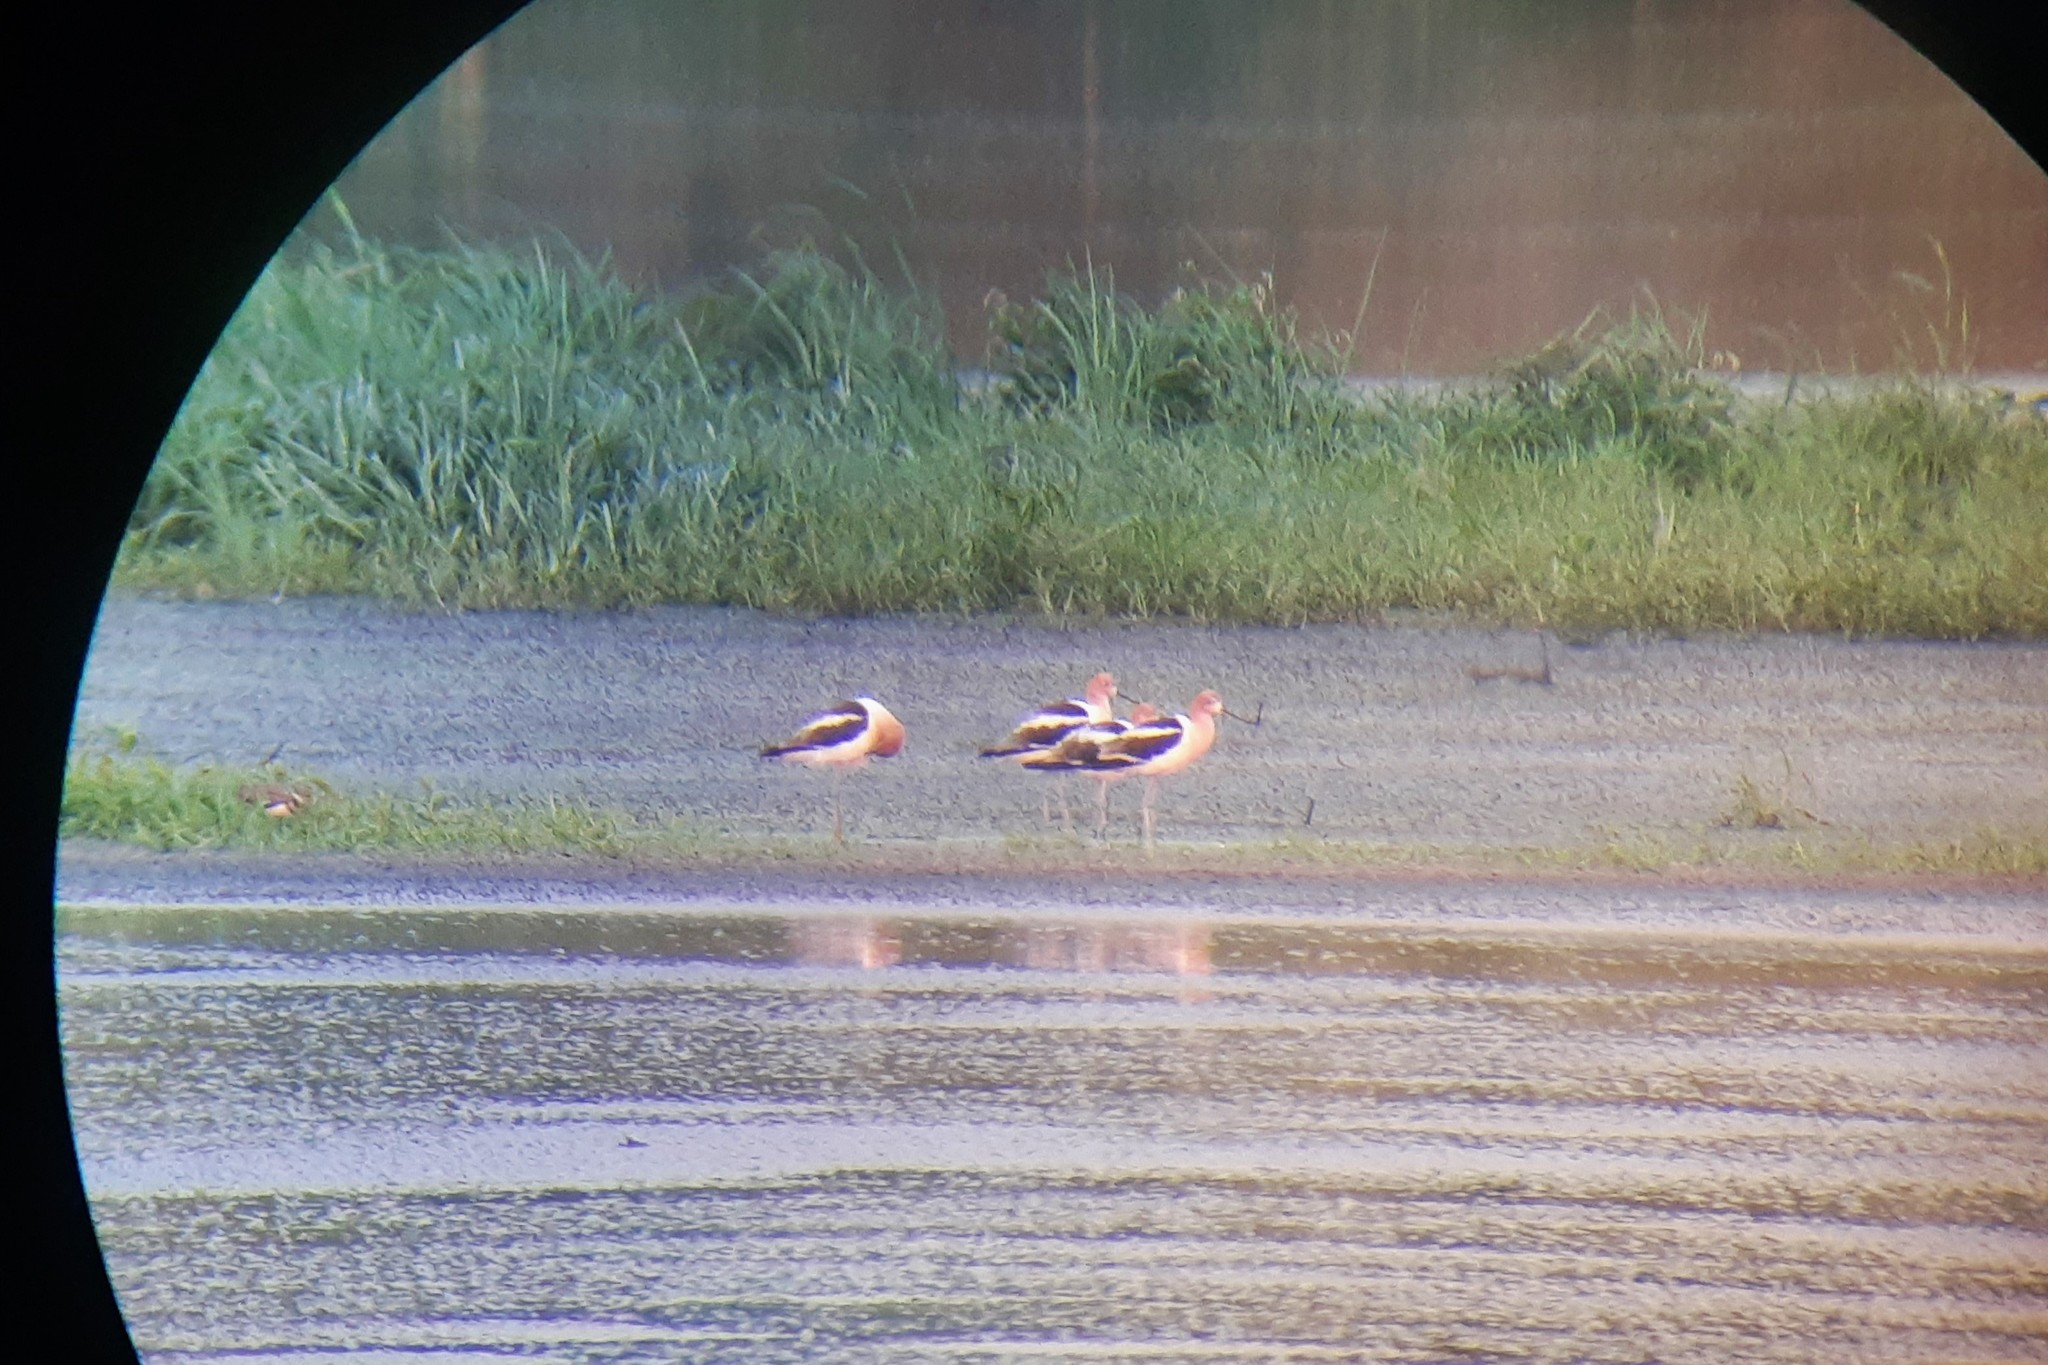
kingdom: Animalia
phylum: Chordata
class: Aves
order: Charadriiformes
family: Recurvirostridae
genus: Recurvirostra
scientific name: Recurvirostra americana
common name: American avocet
